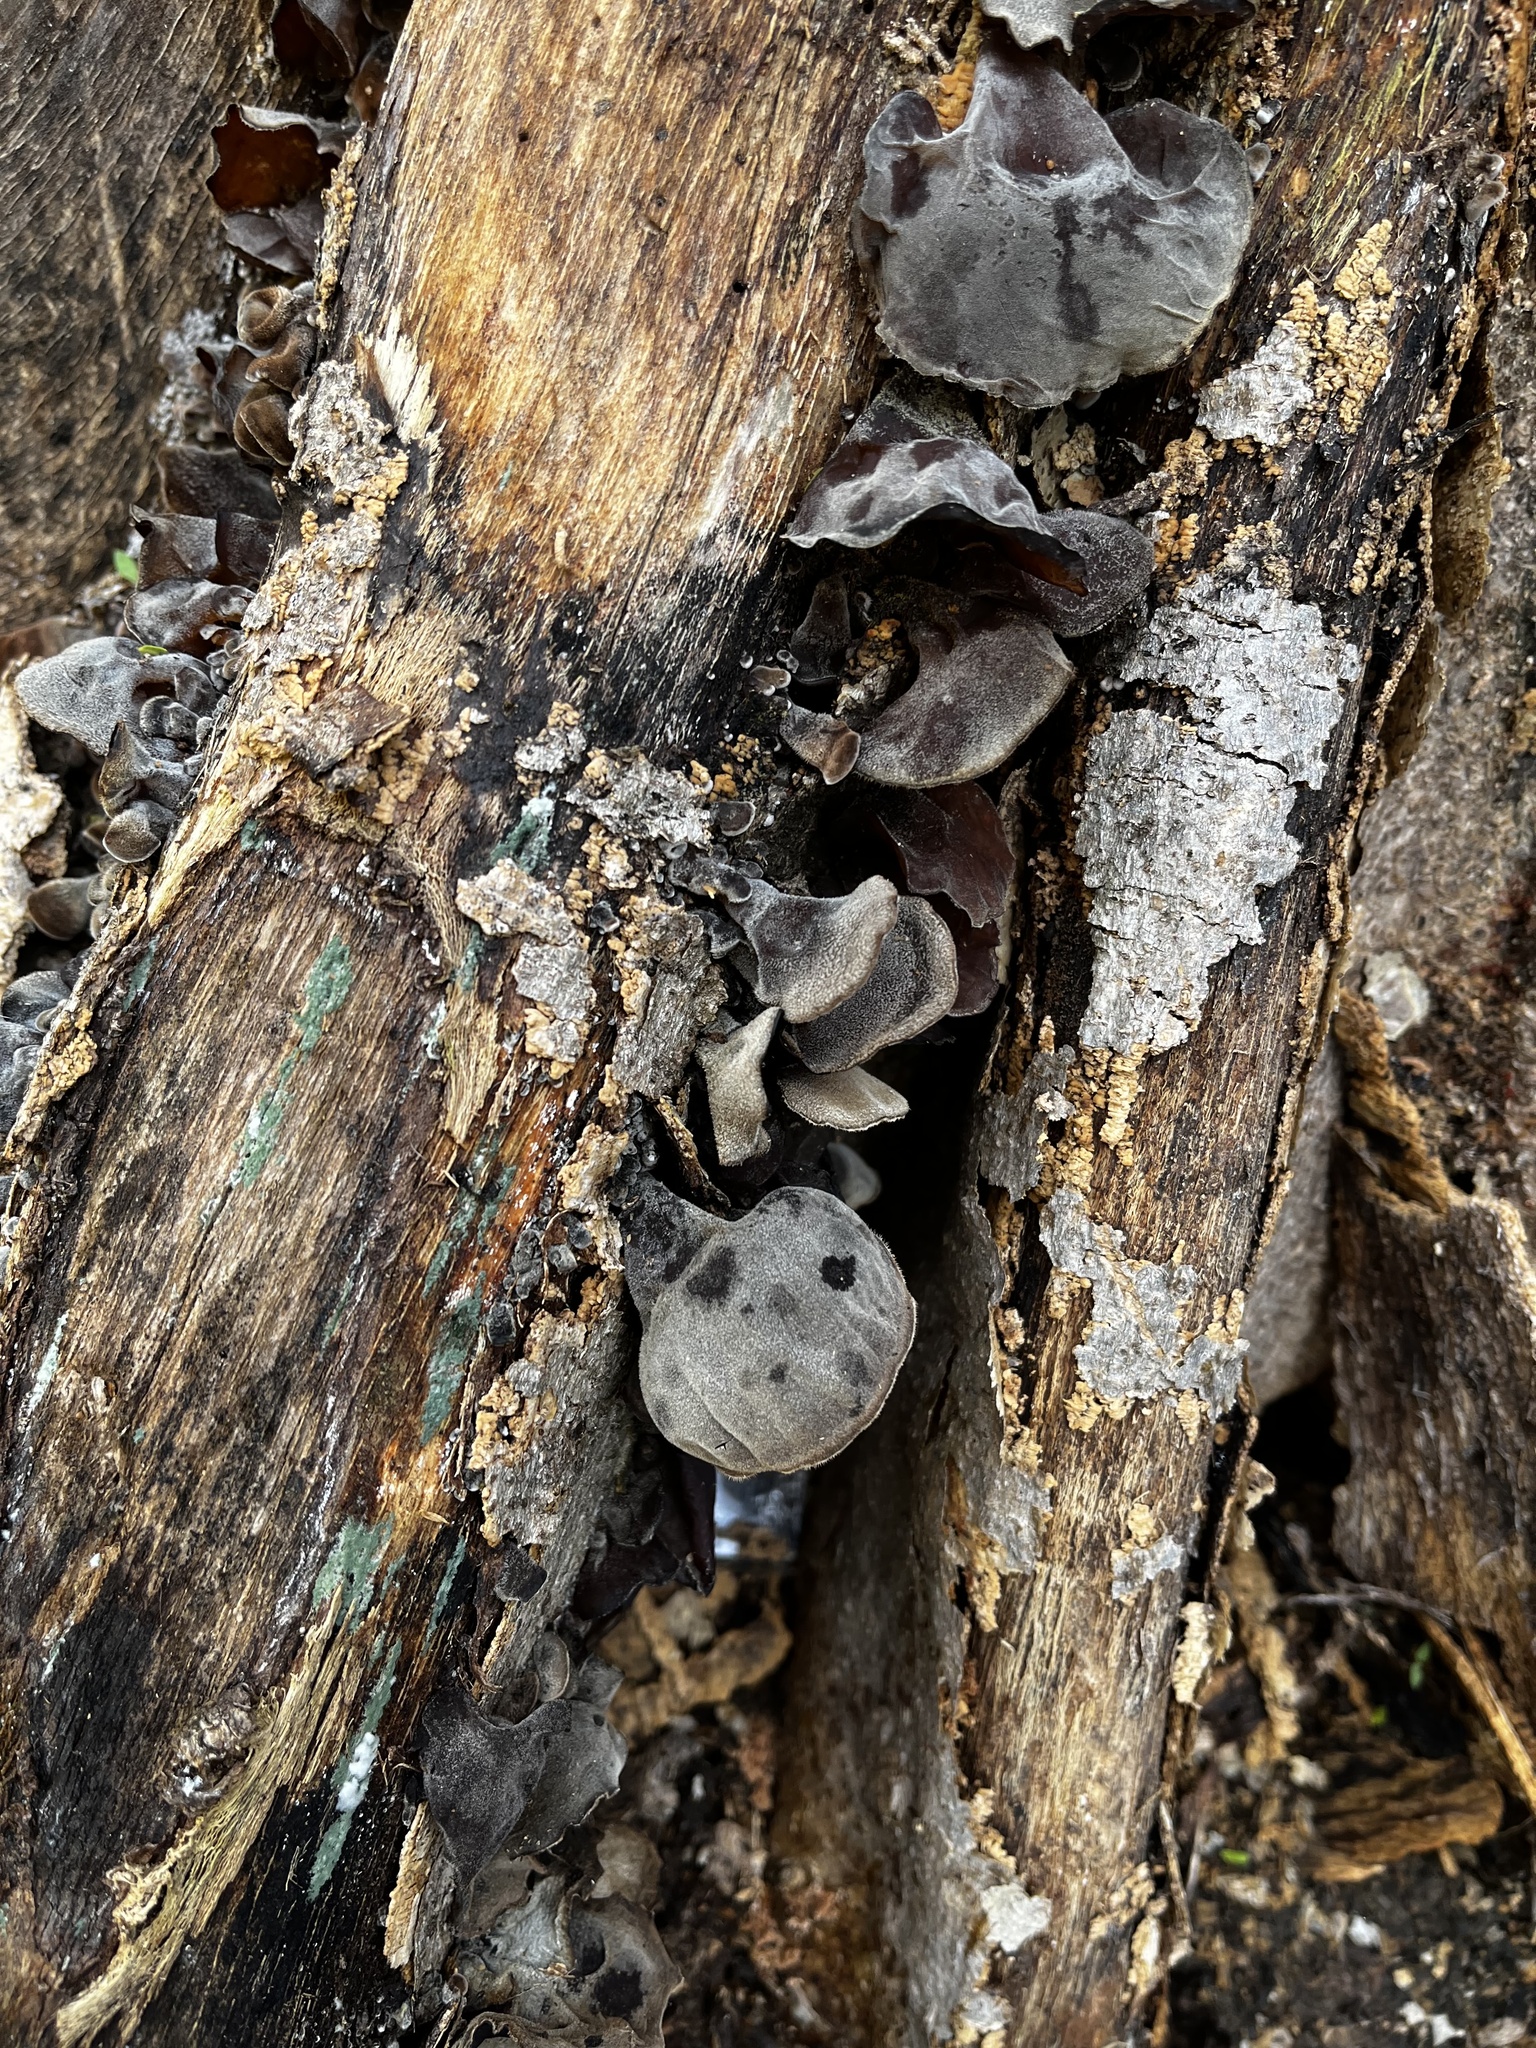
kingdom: Fungi
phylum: Basidiomycota
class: Agaricomycetes
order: Auriculariales
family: Auriculariaceae
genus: Auricularia
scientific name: Auricularia cornea
